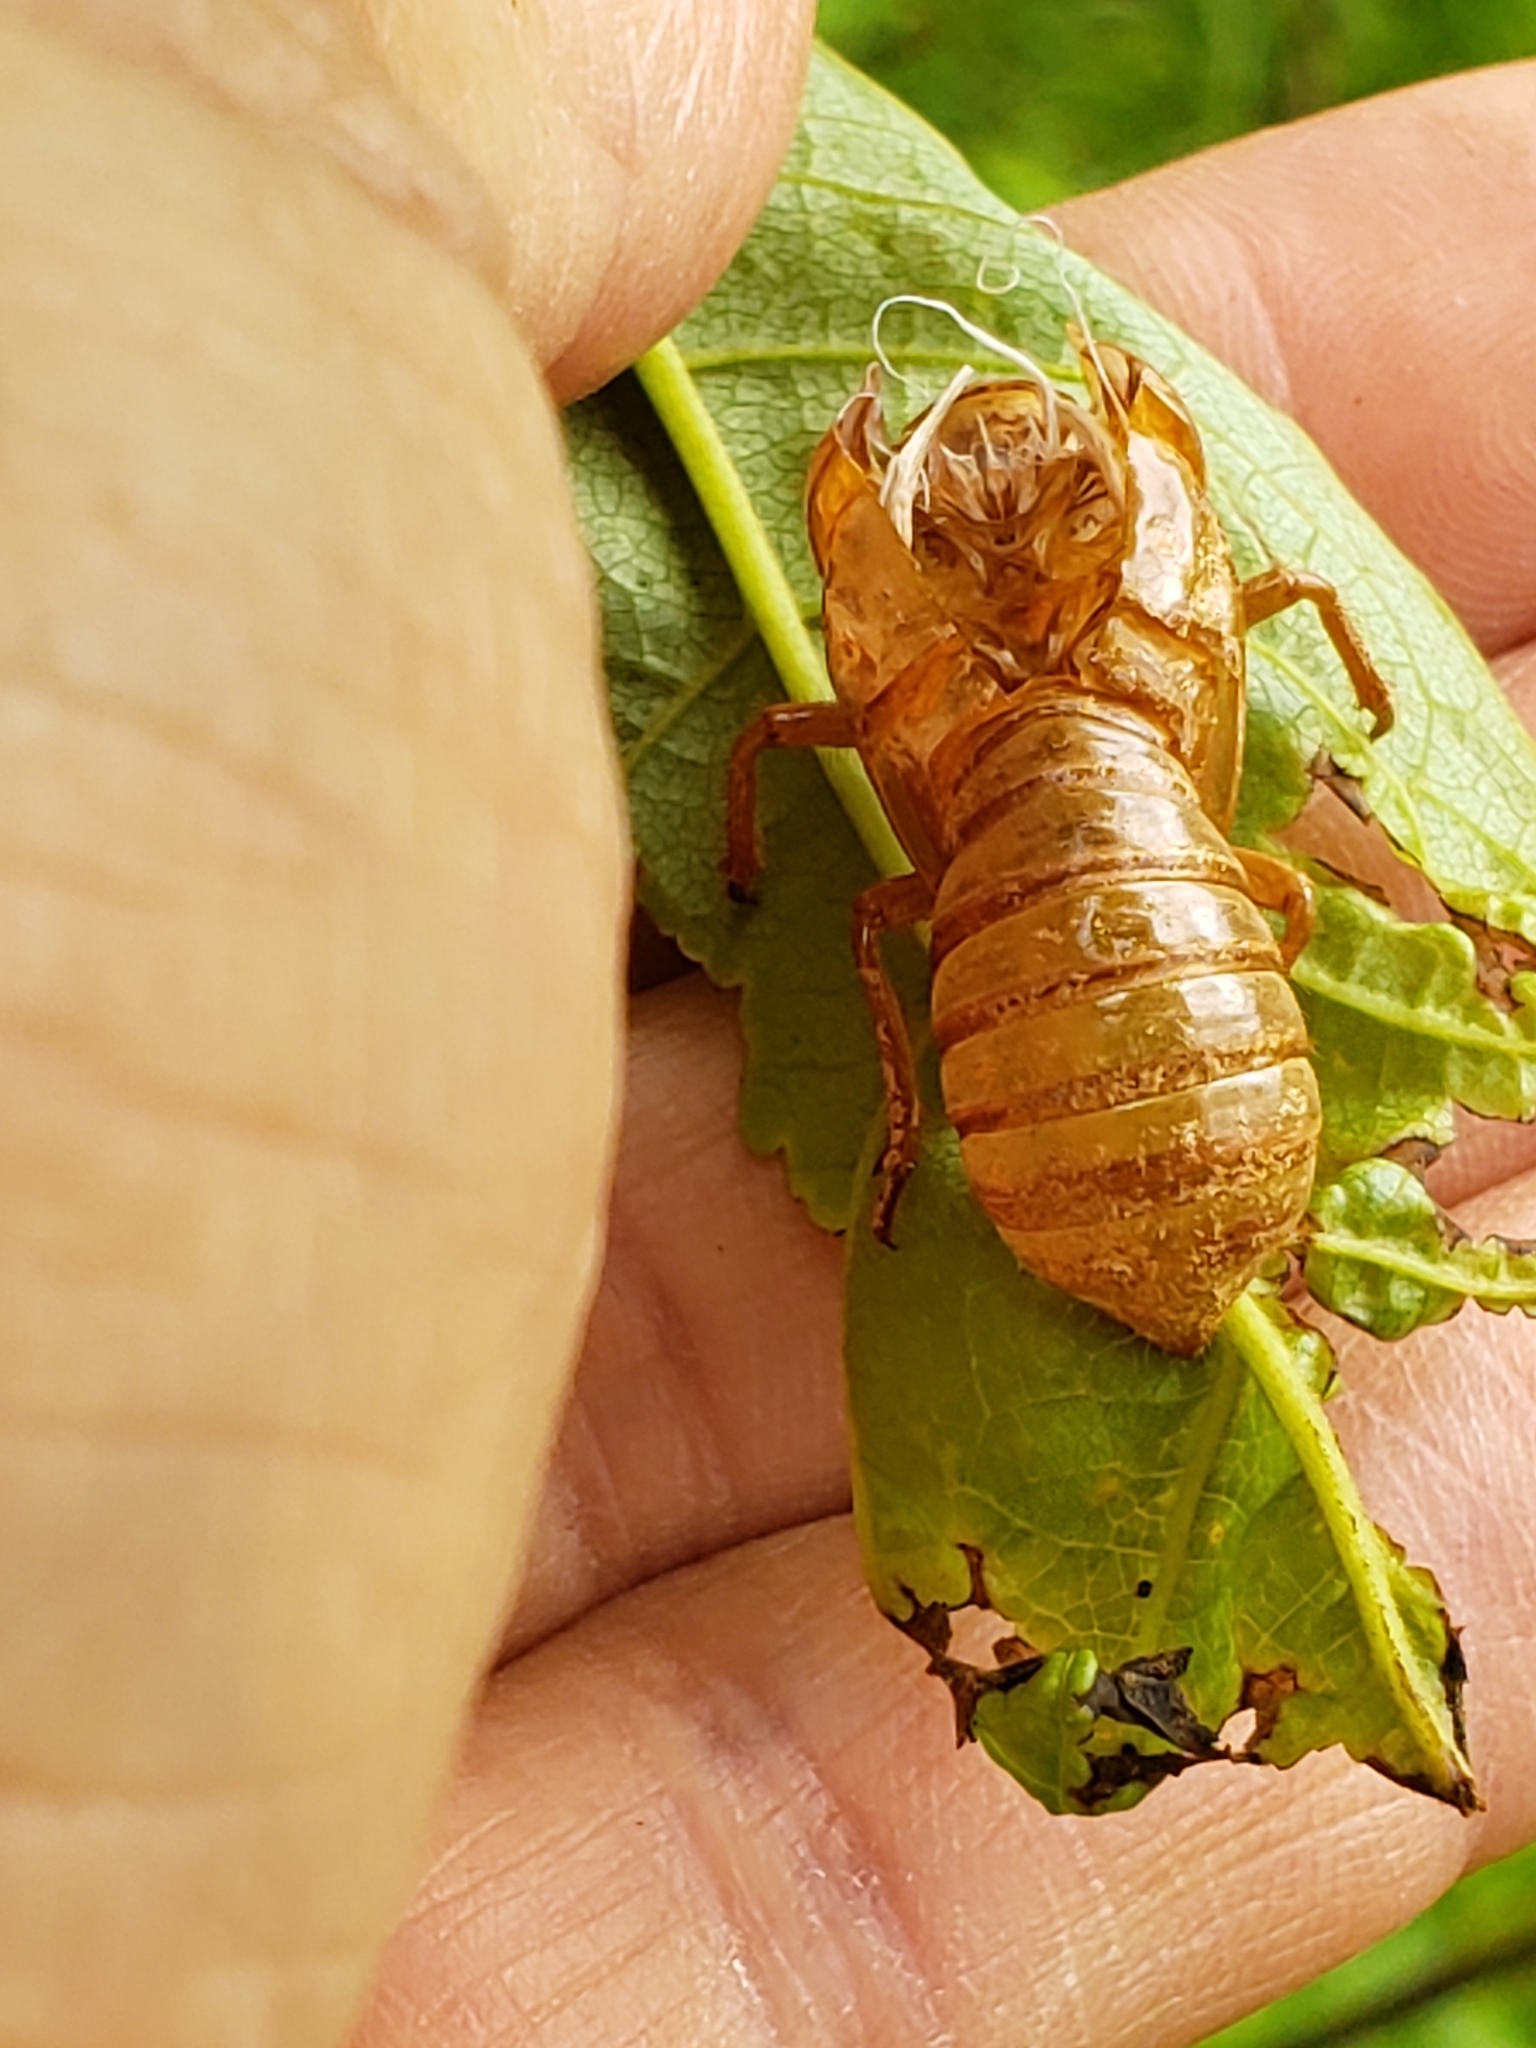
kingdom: Animalia
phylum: Arthropoda
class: Insecta
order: Hemiptera
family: Cicadidae
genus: Magicicada
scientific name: Magicicada
